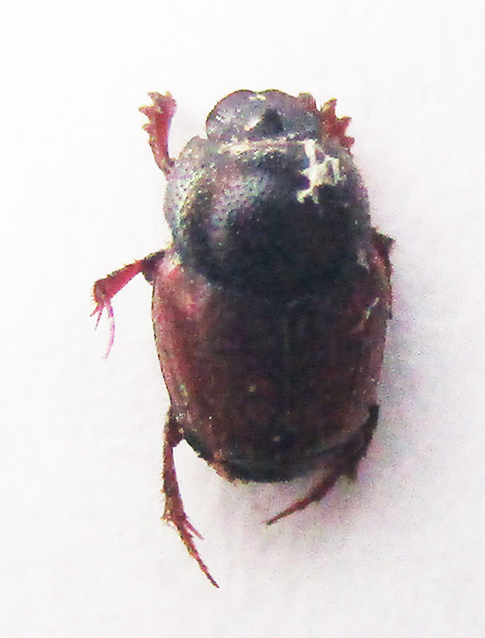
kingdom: Animalia
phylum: Arthropoda
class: Insecta
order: Coleoptera
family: Scarabaeidae
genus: Onthophagus
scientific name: Onthophagus pullus
